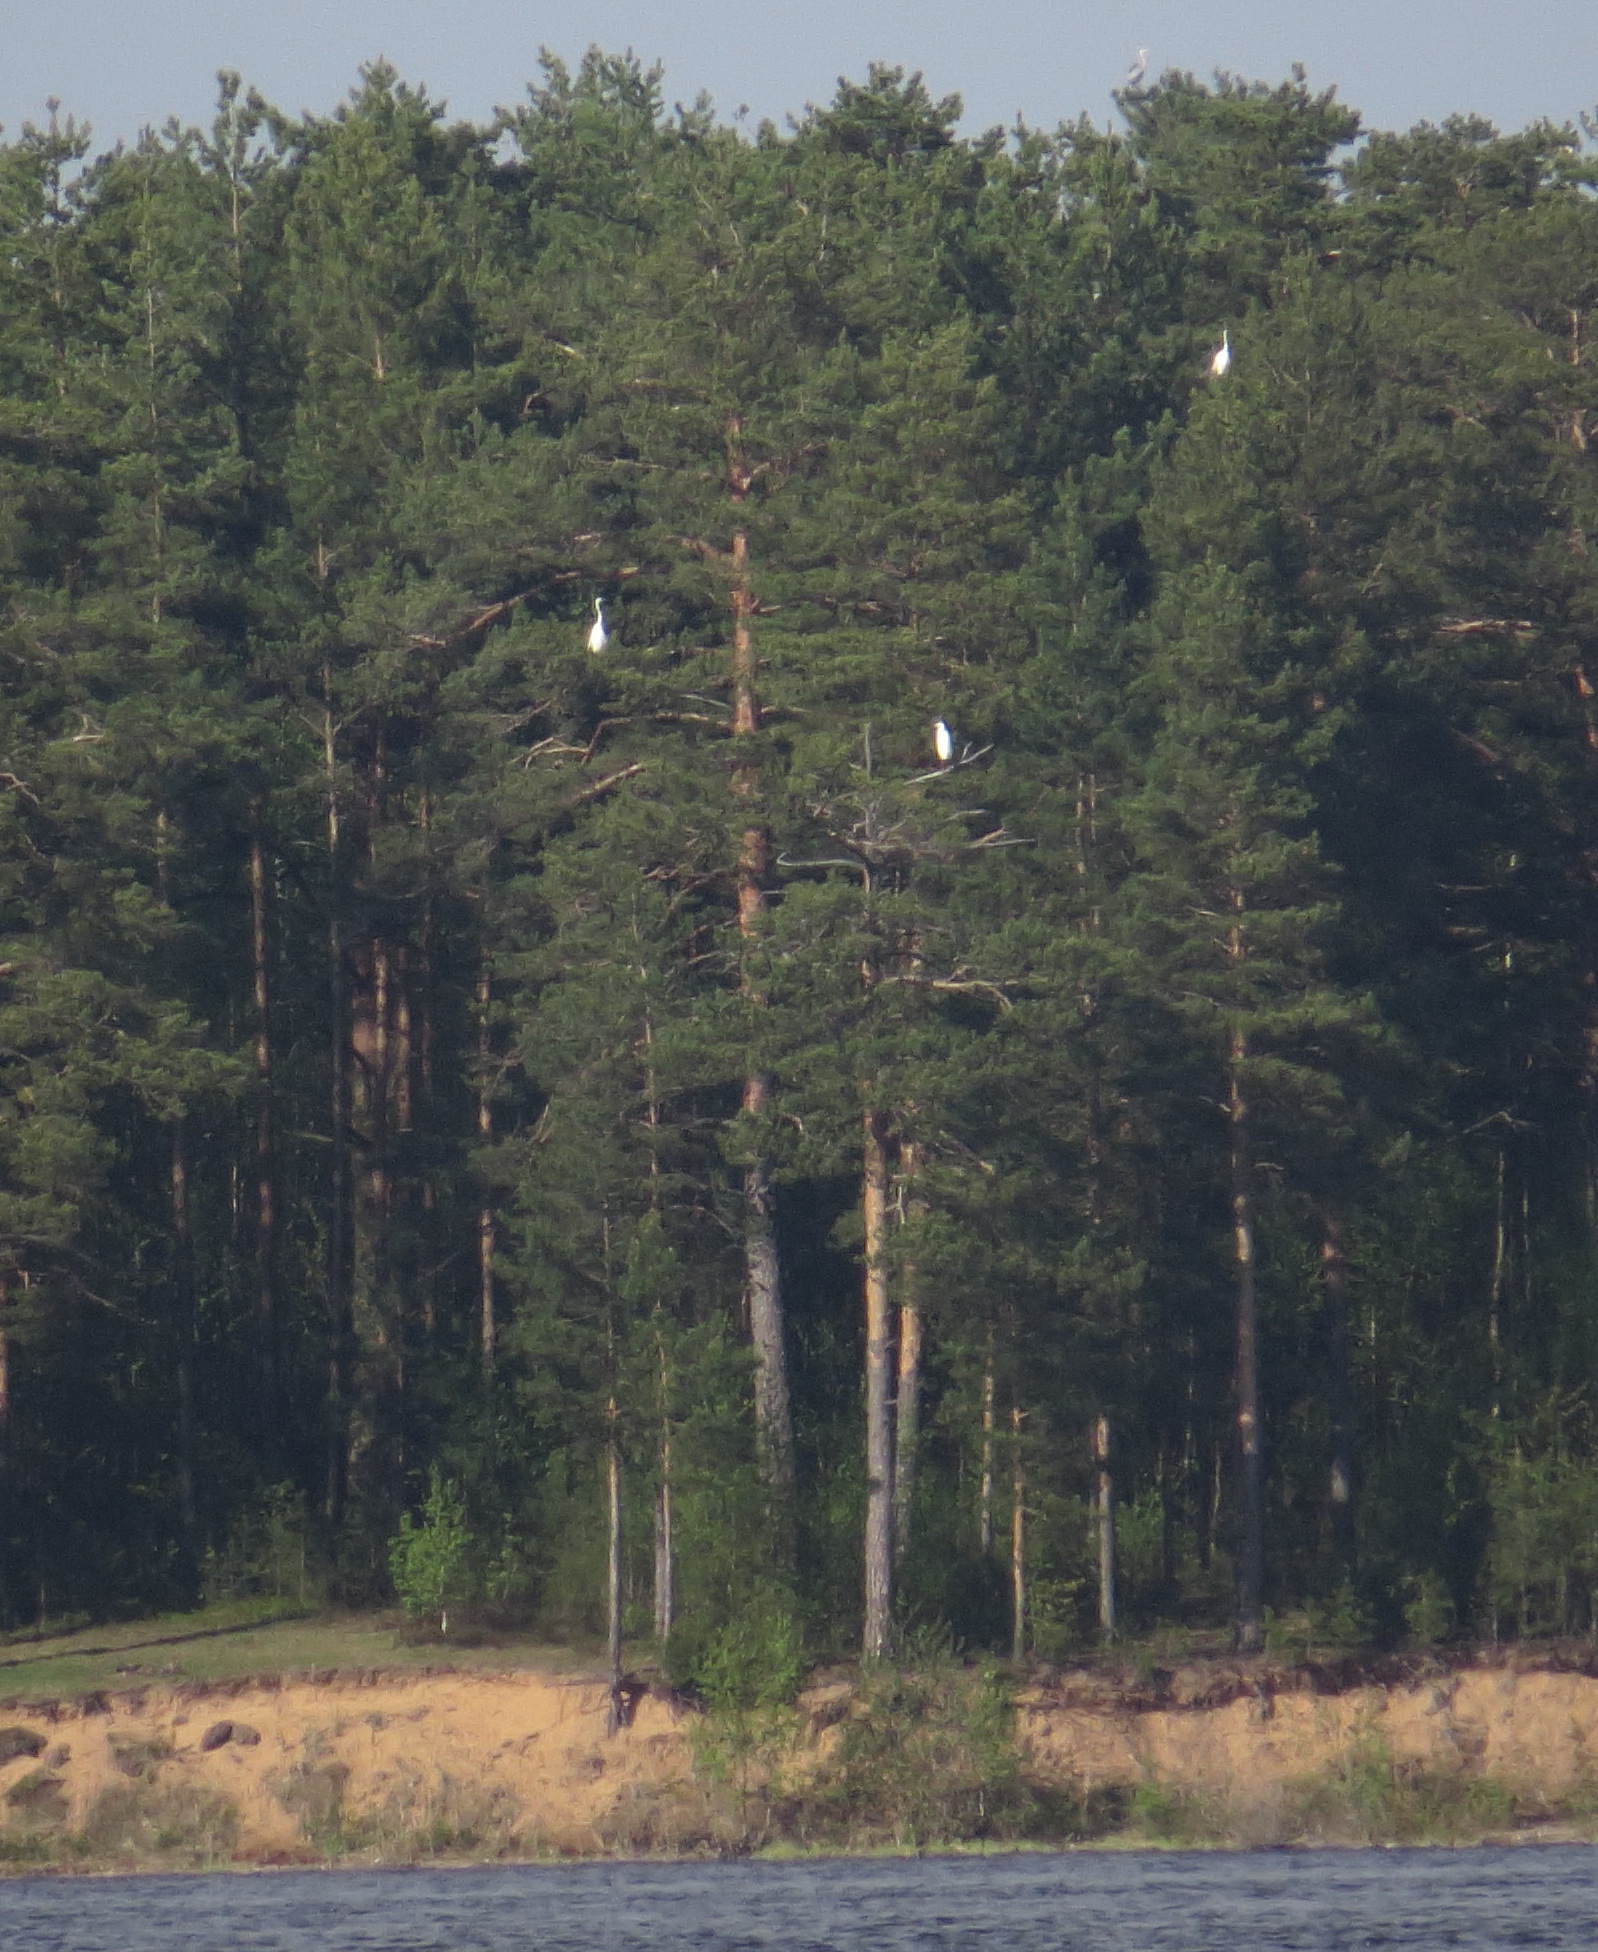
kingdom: Animalia
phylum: Chordata
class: Aves
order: Pelecaniformes
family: Ardeidae
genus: Ardea
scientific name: Ardea alba
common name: Great egret
